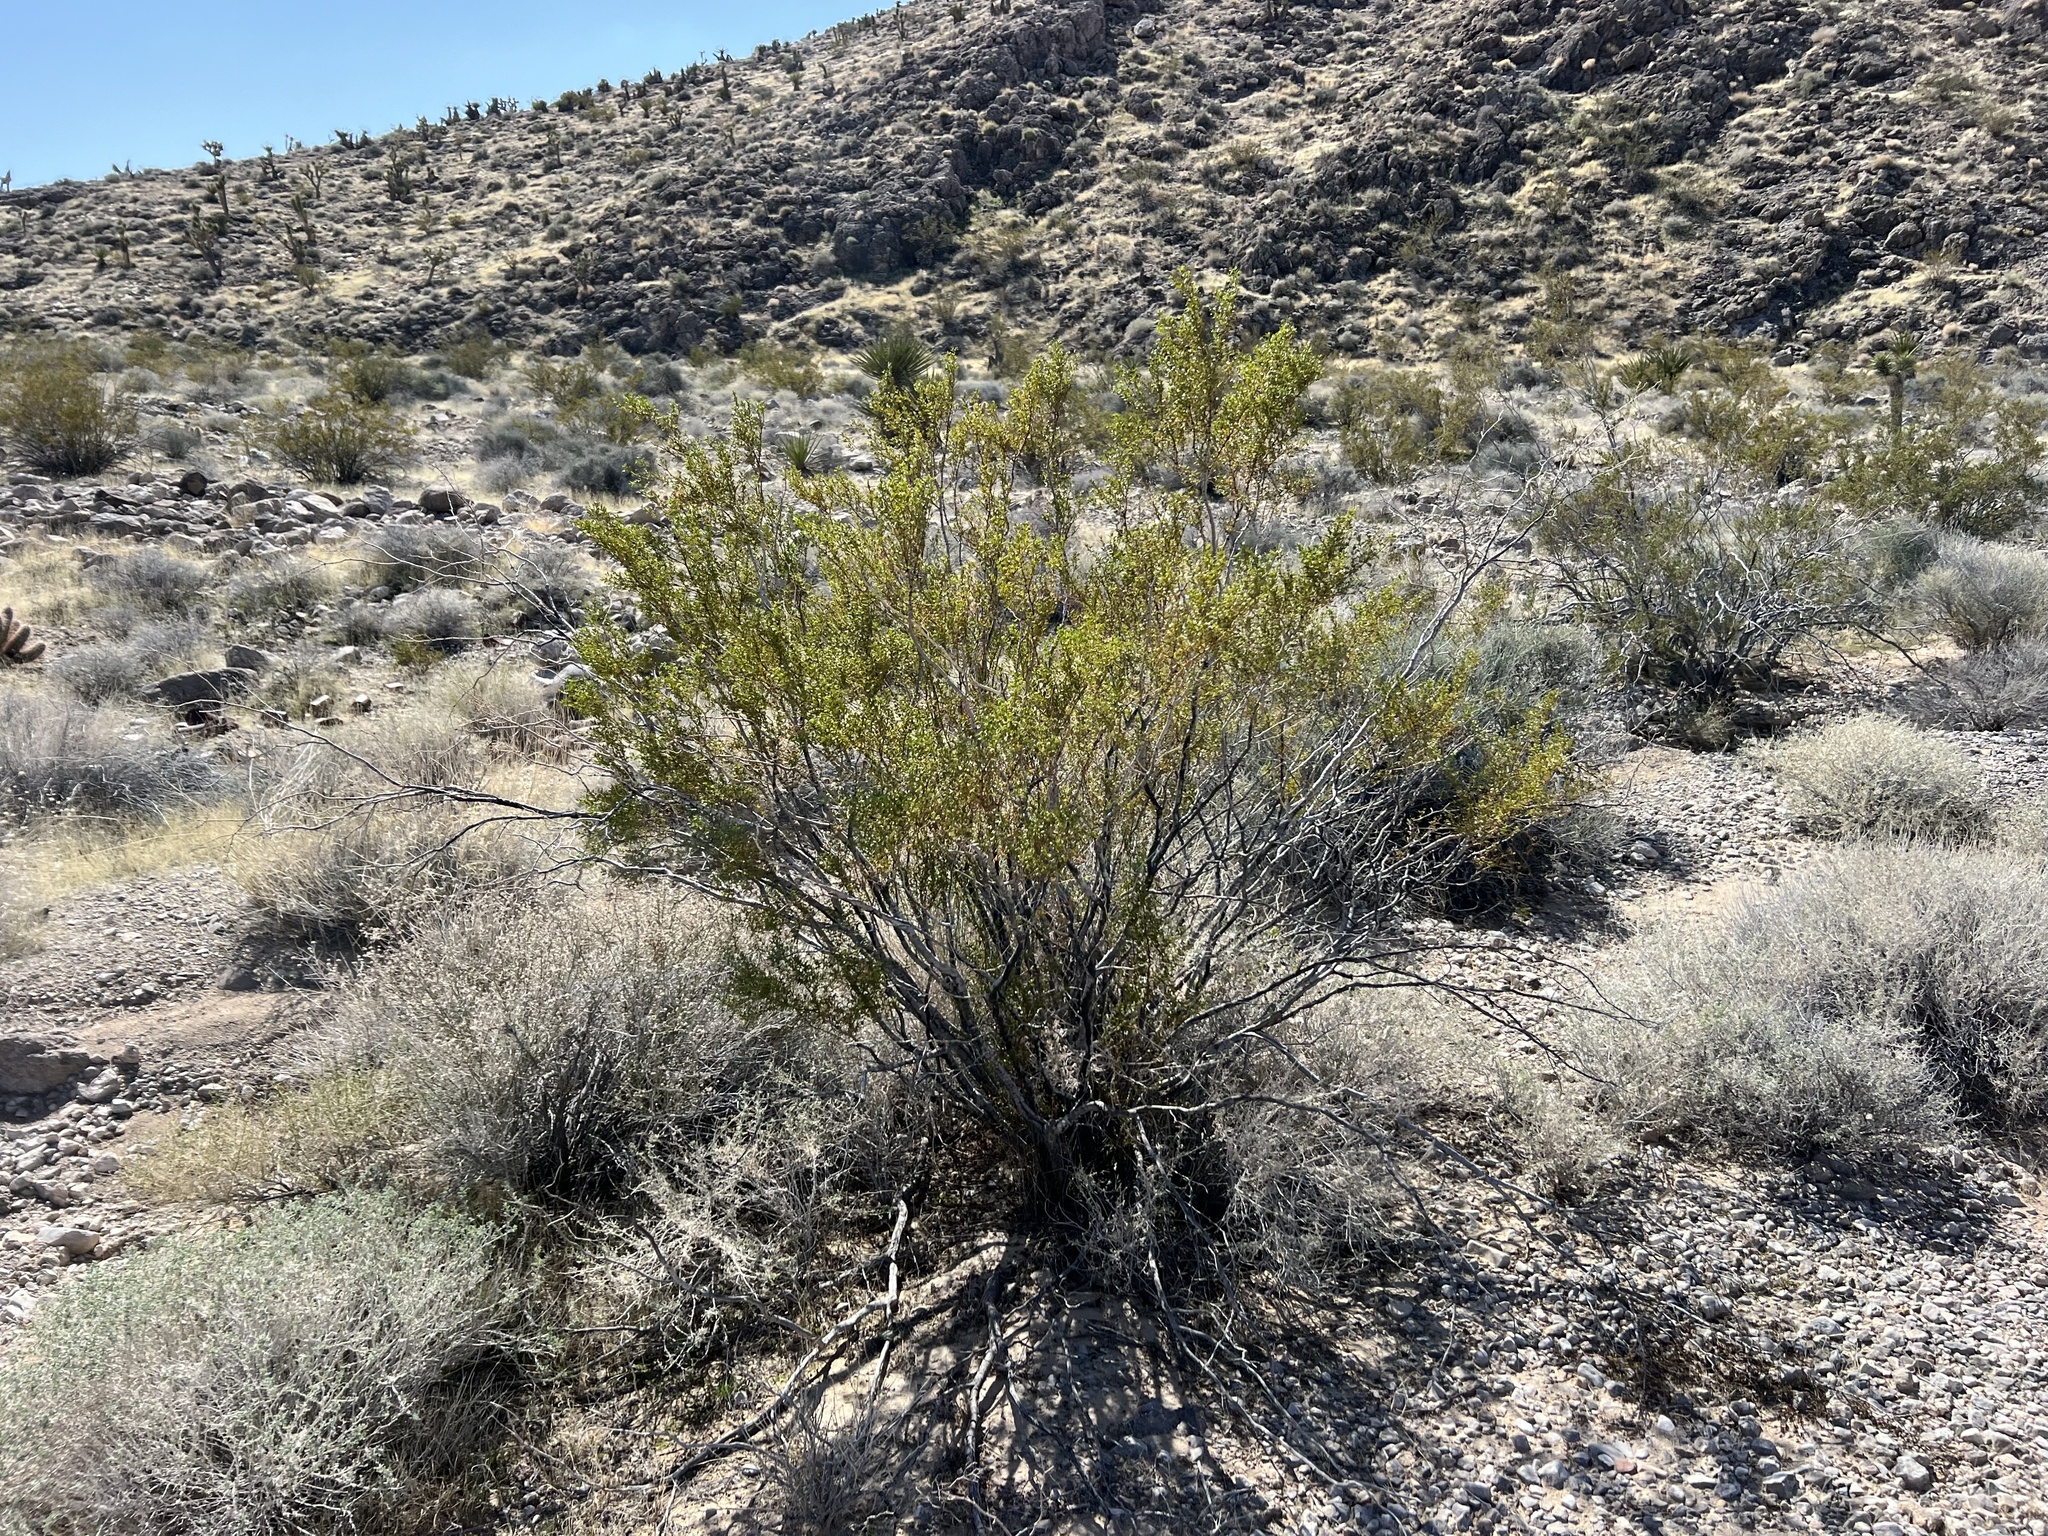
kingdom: Plantae
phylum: Tracheophyta
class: Magnoliopsida
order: Zygophyllales
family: Zygophyllaceae
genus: Larrea
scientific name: Larrea tridentata
